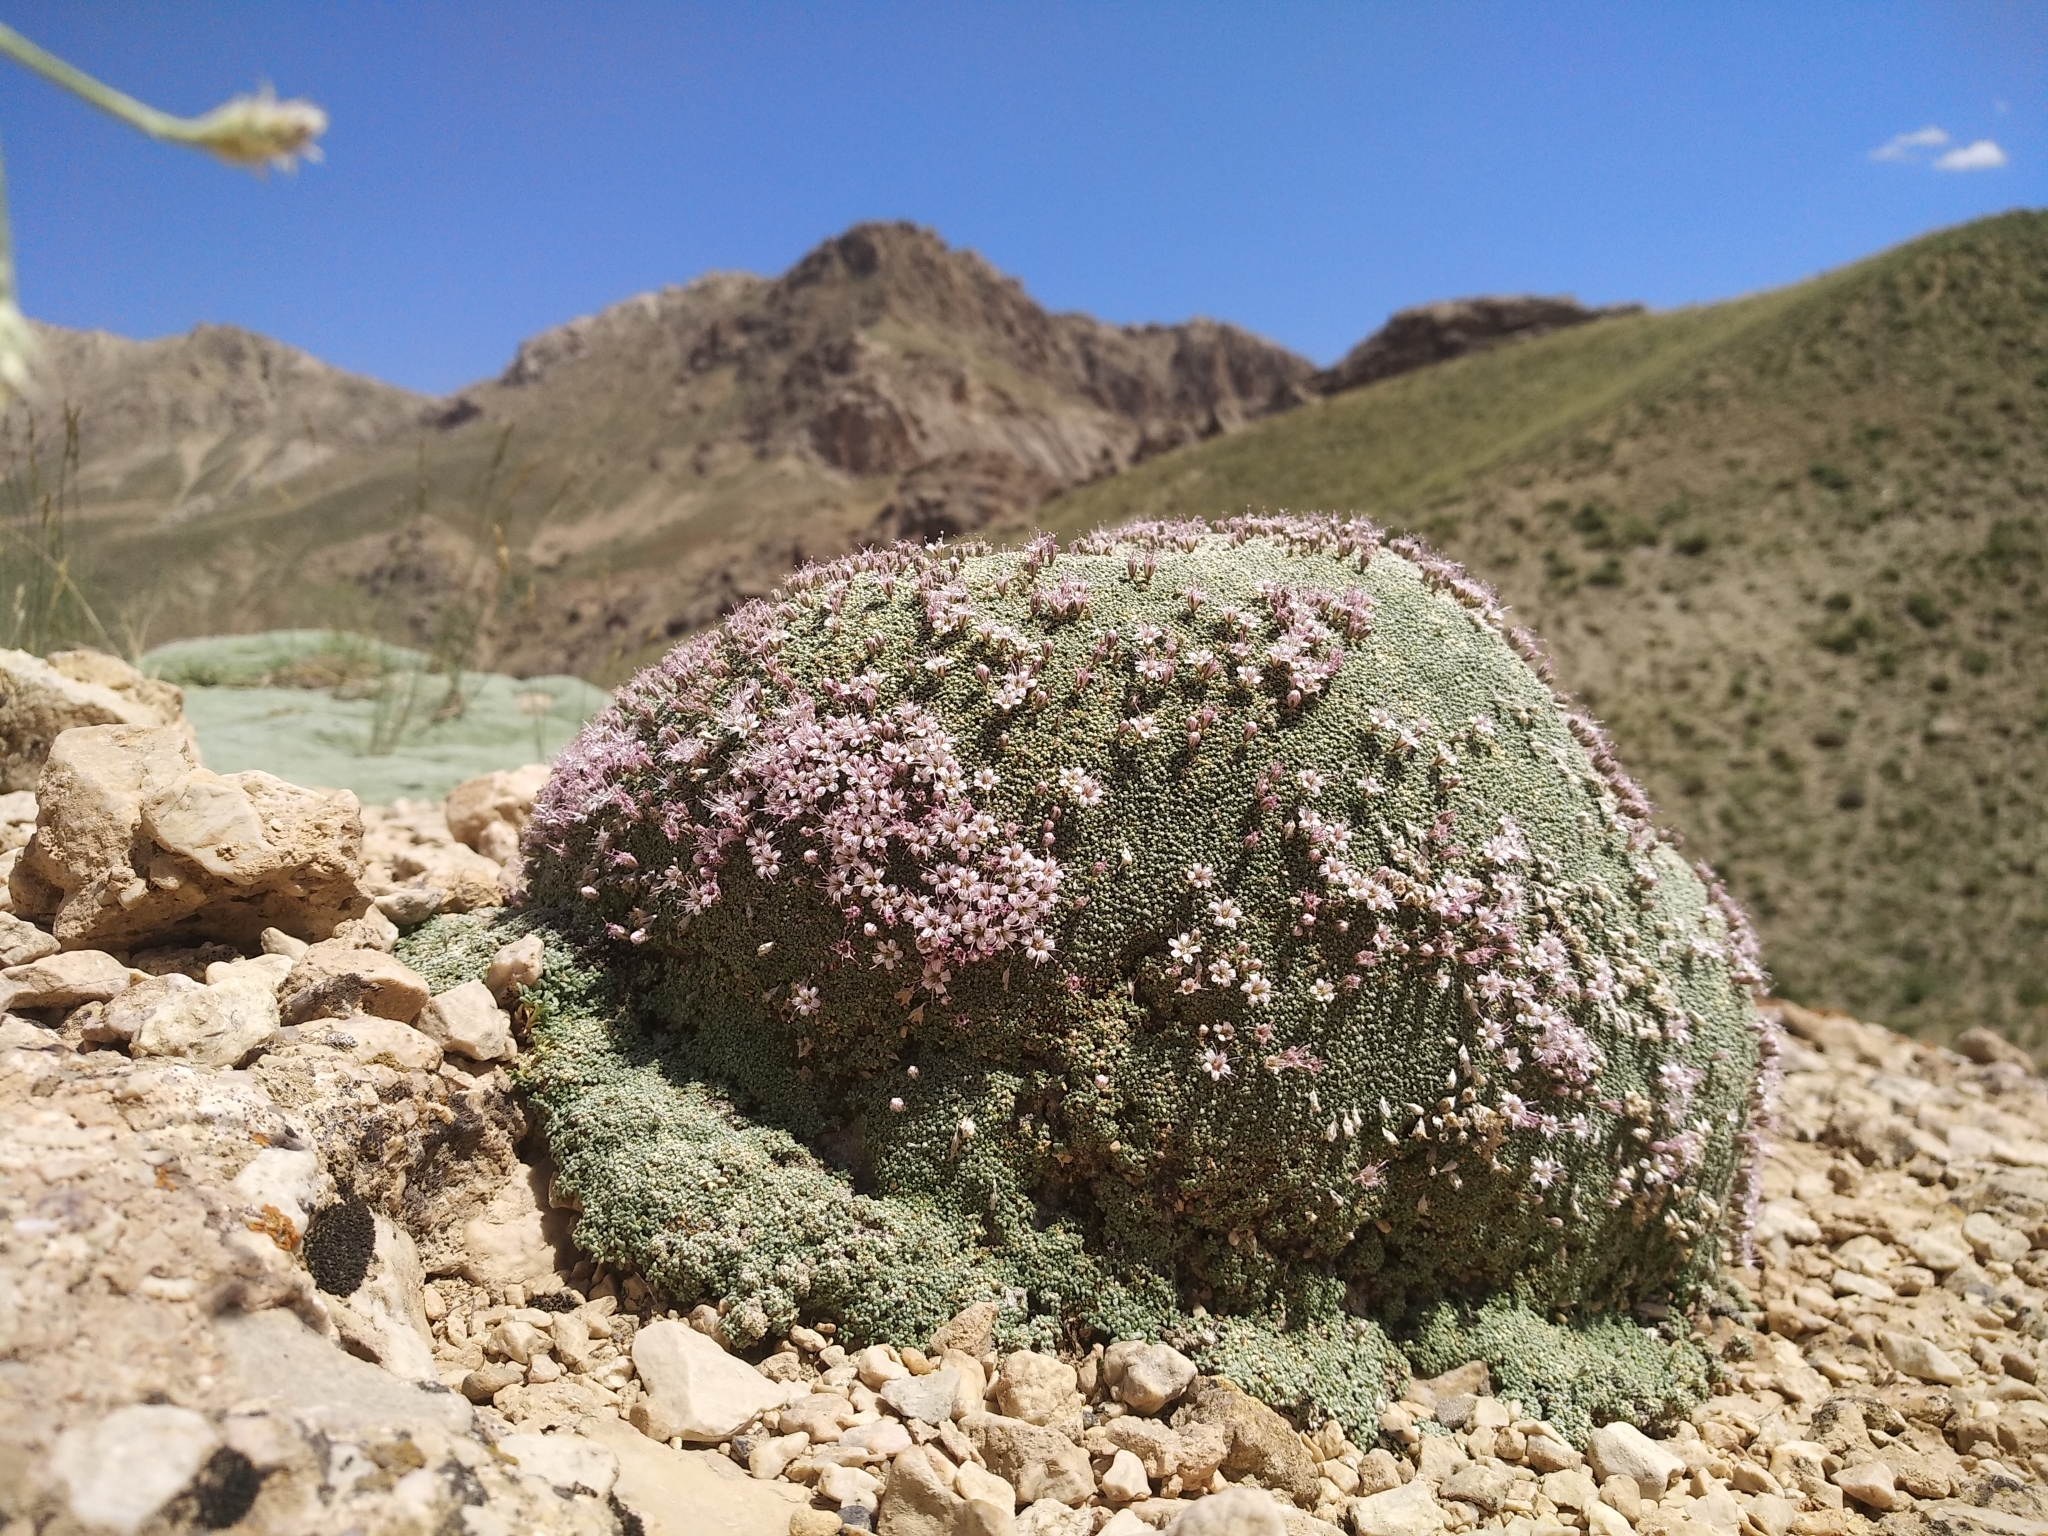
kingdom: Plantae
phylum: Tracheophyta
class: Magnoliopsida
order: Caryophyllales
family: Caryophyllaceae
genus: Gypsophila
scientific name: Gypsophila aretioides
